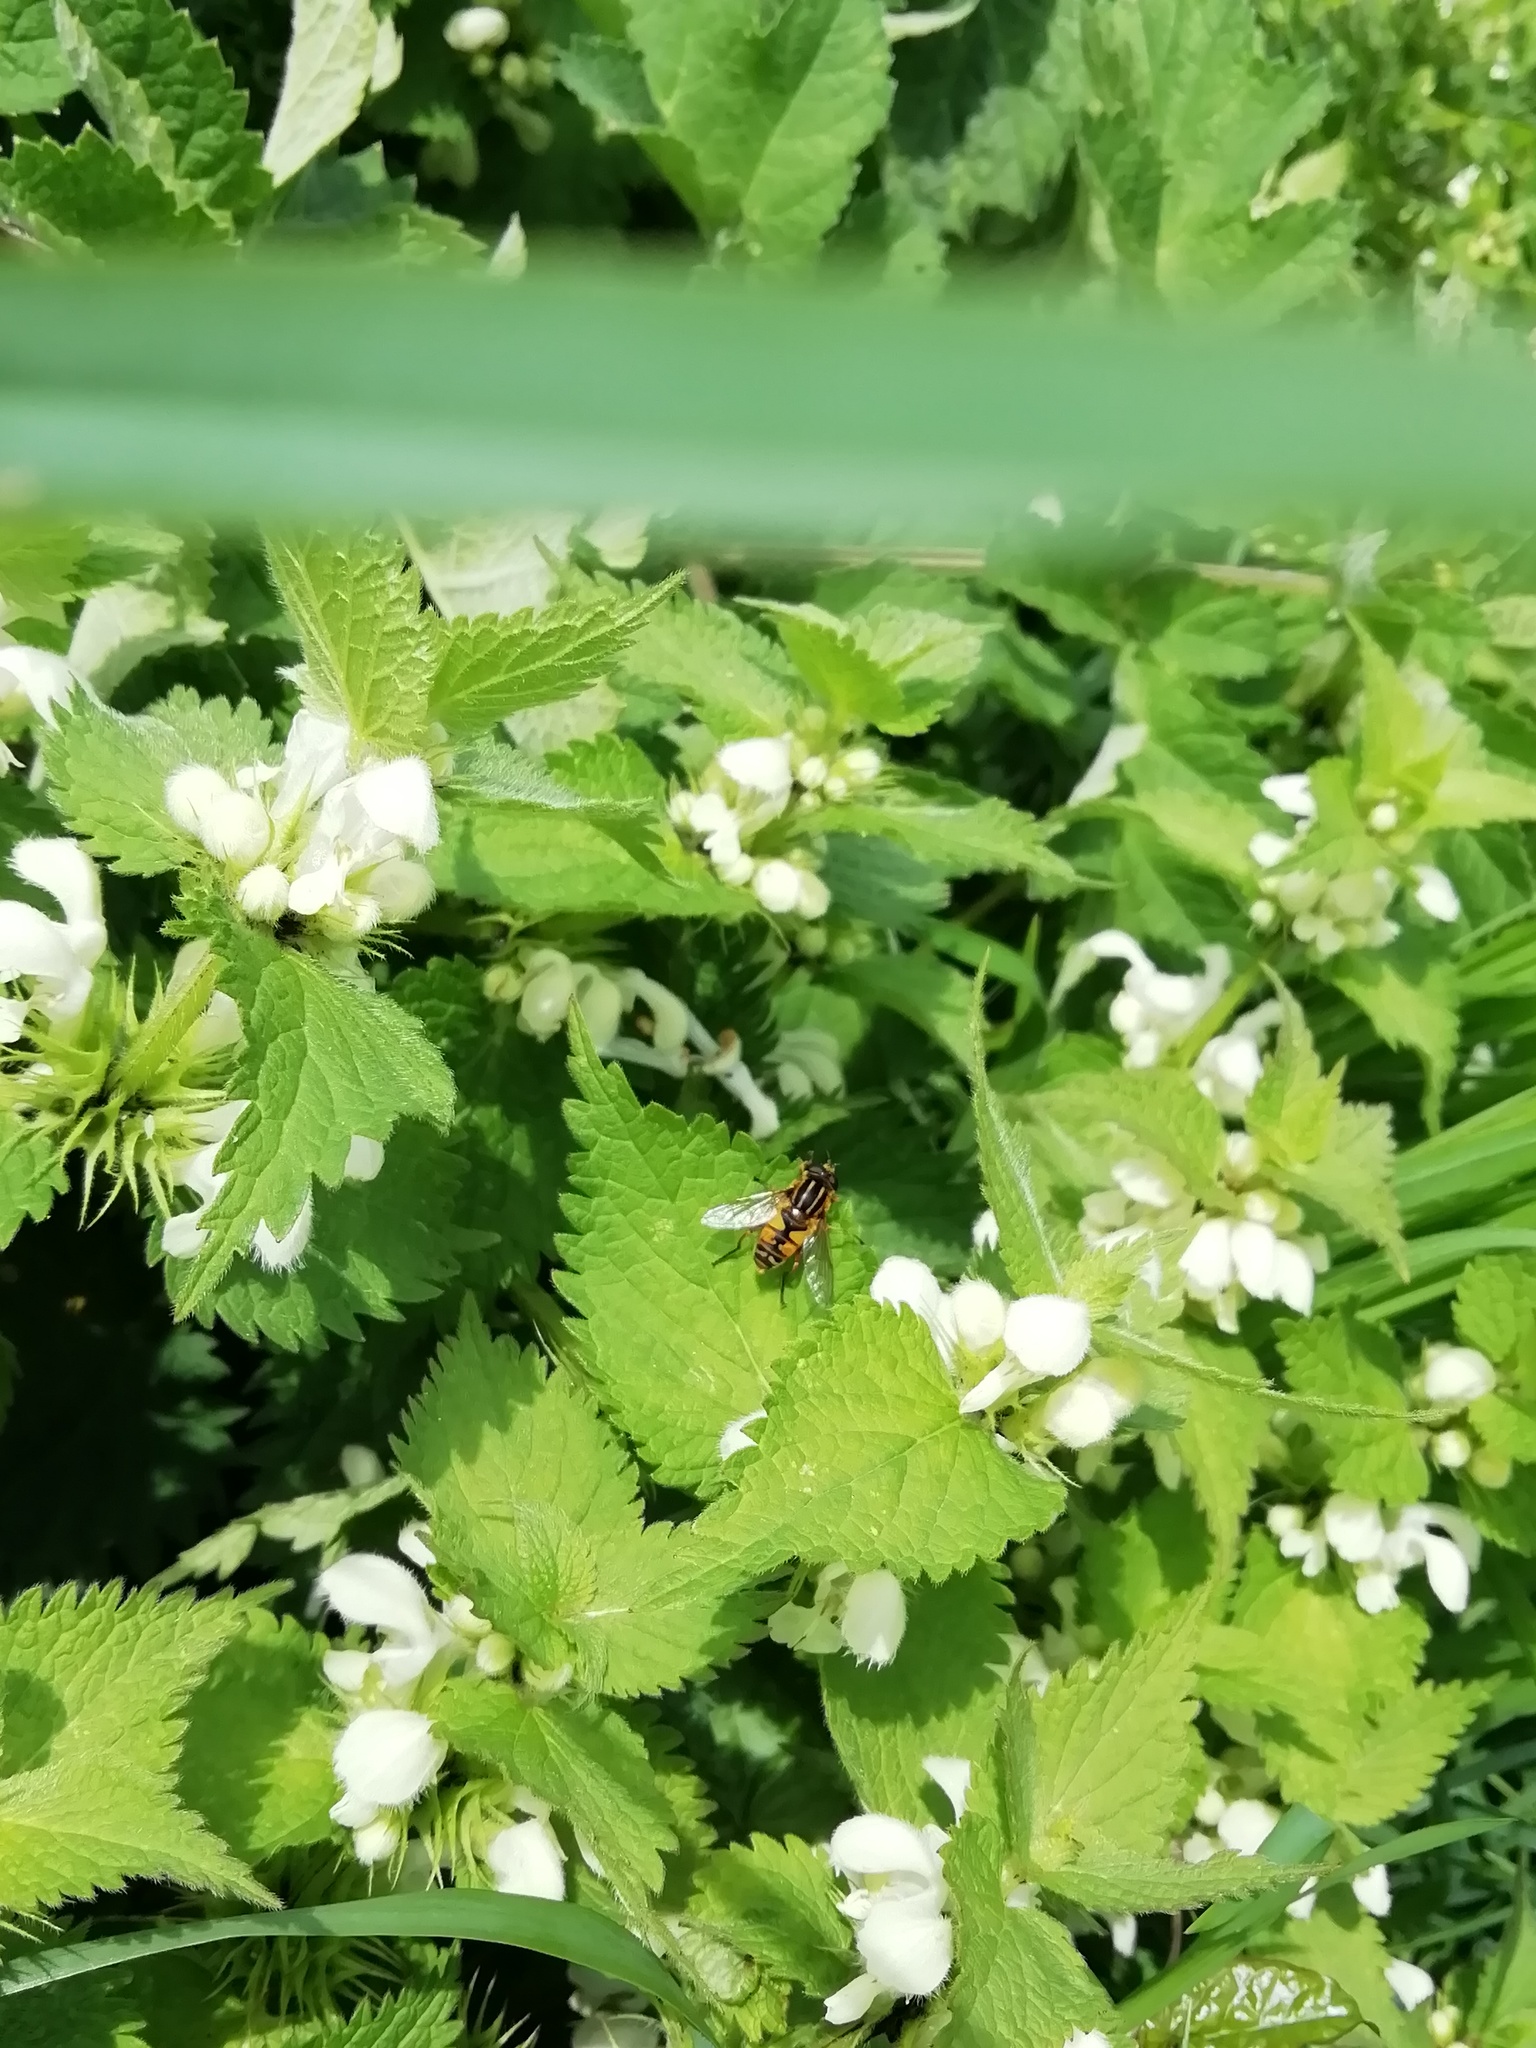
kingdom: Animalia
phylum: Arthropoda
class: Insecta
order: Diptera
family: Syrphidae
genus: Helophilus
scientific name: Helophilus pendulus
